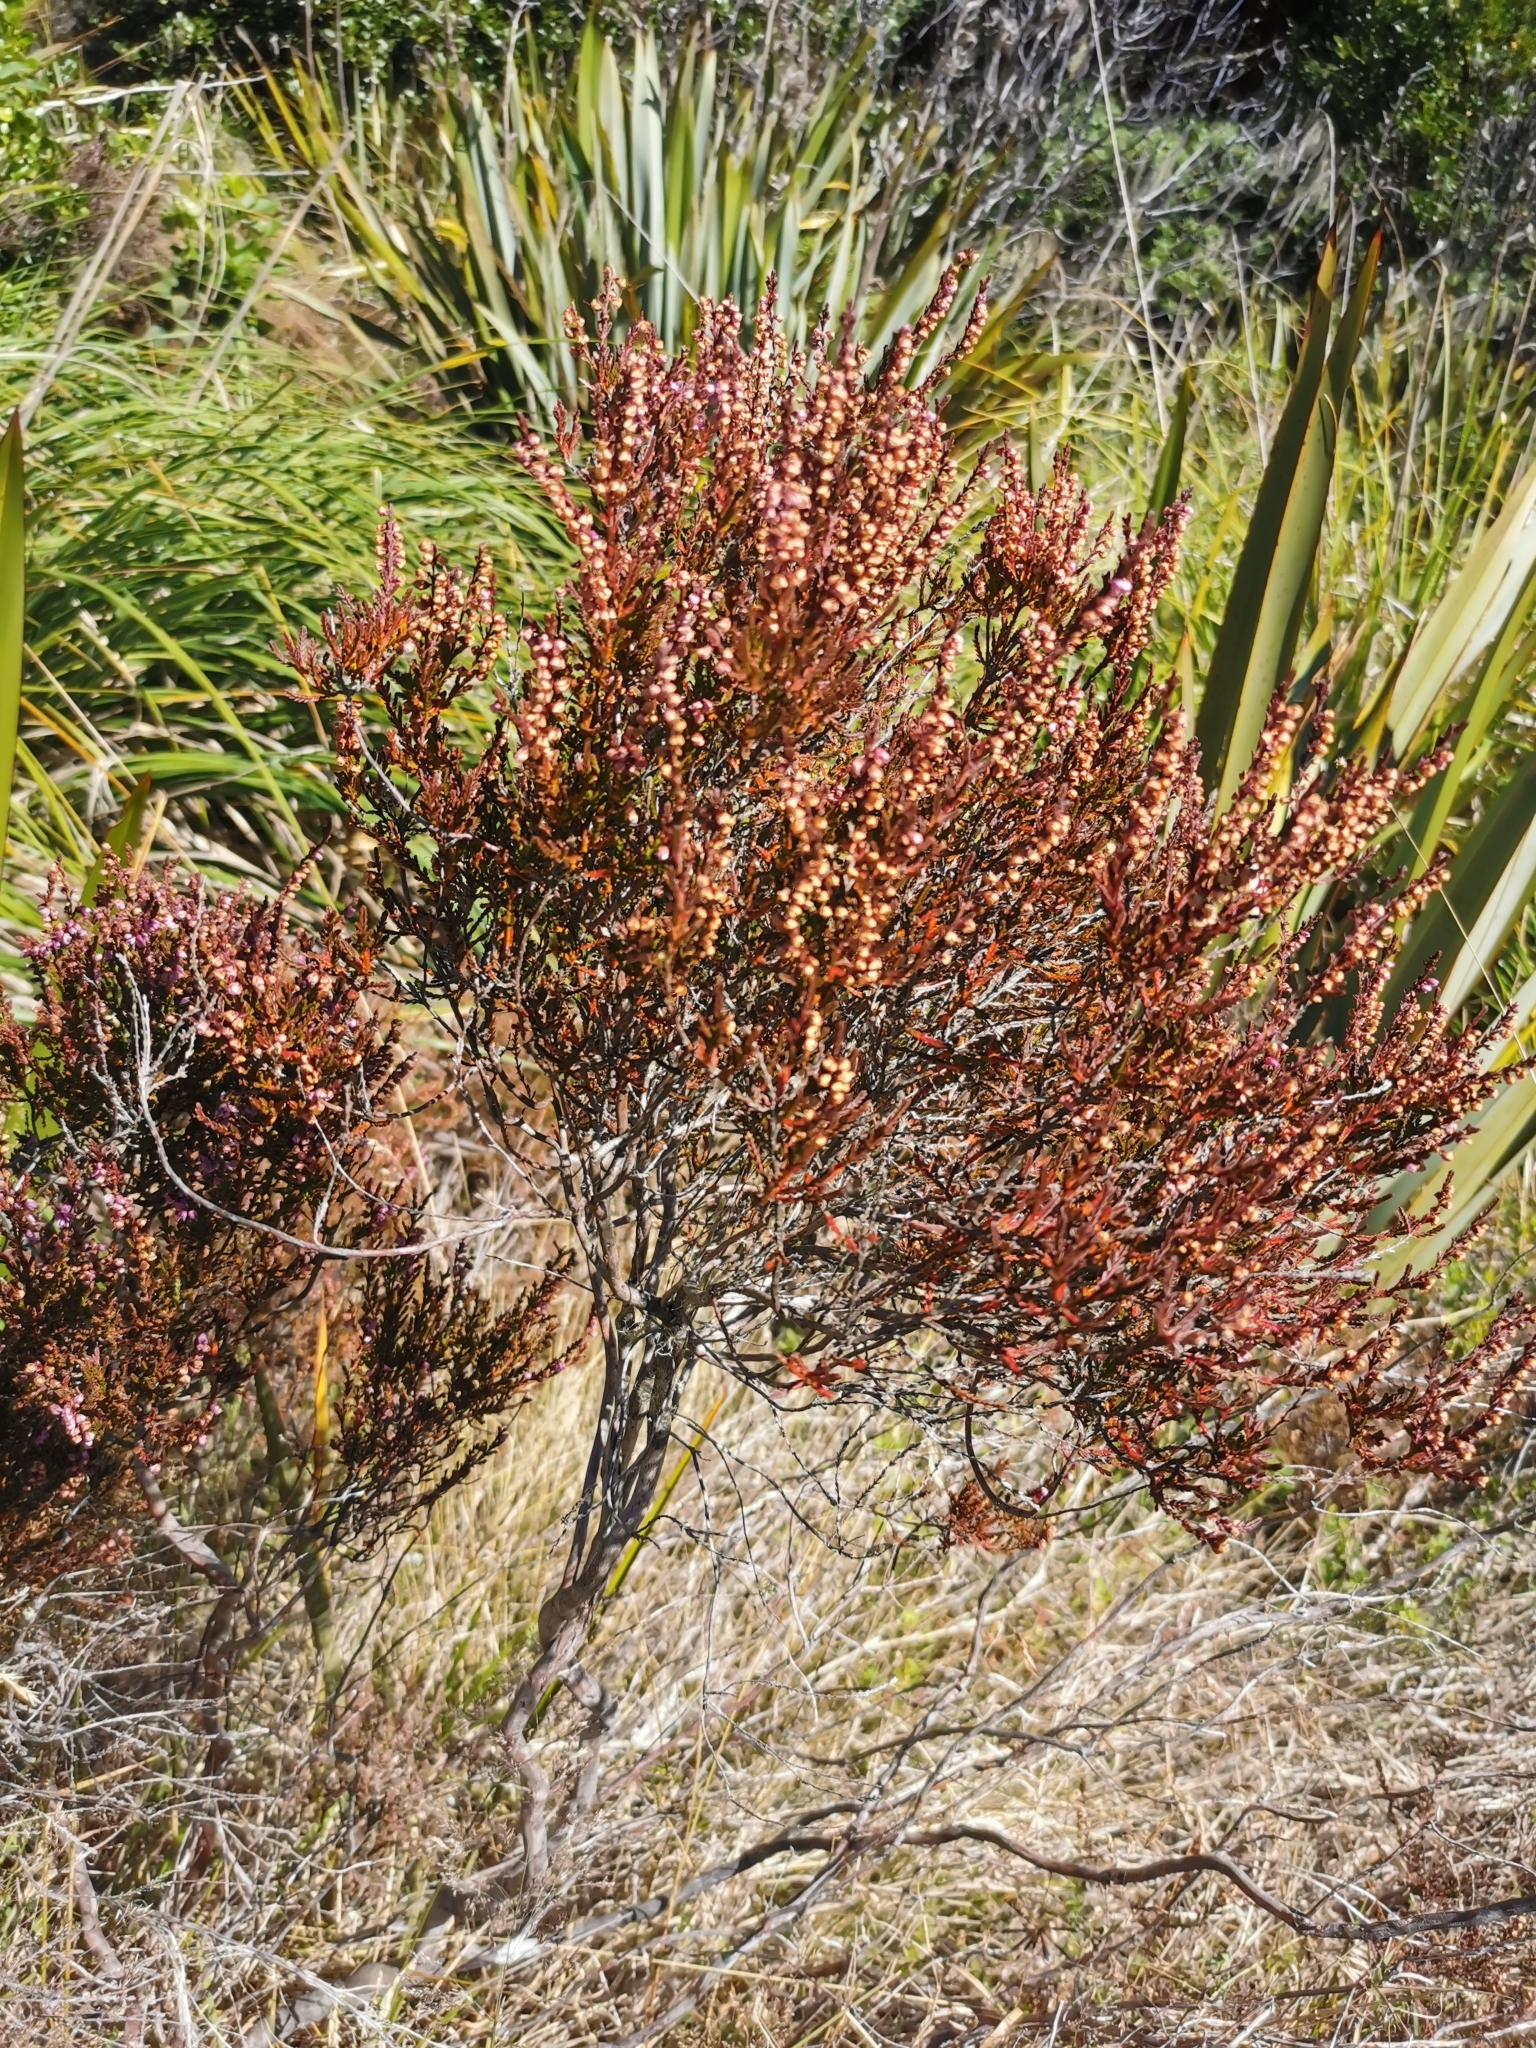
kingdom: Plantae
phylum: Tracheophyta
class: Magnoliopsida
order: Ericales
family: Ericaceae
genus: Calluna
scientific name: Calluna vulgaris
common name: Heather
